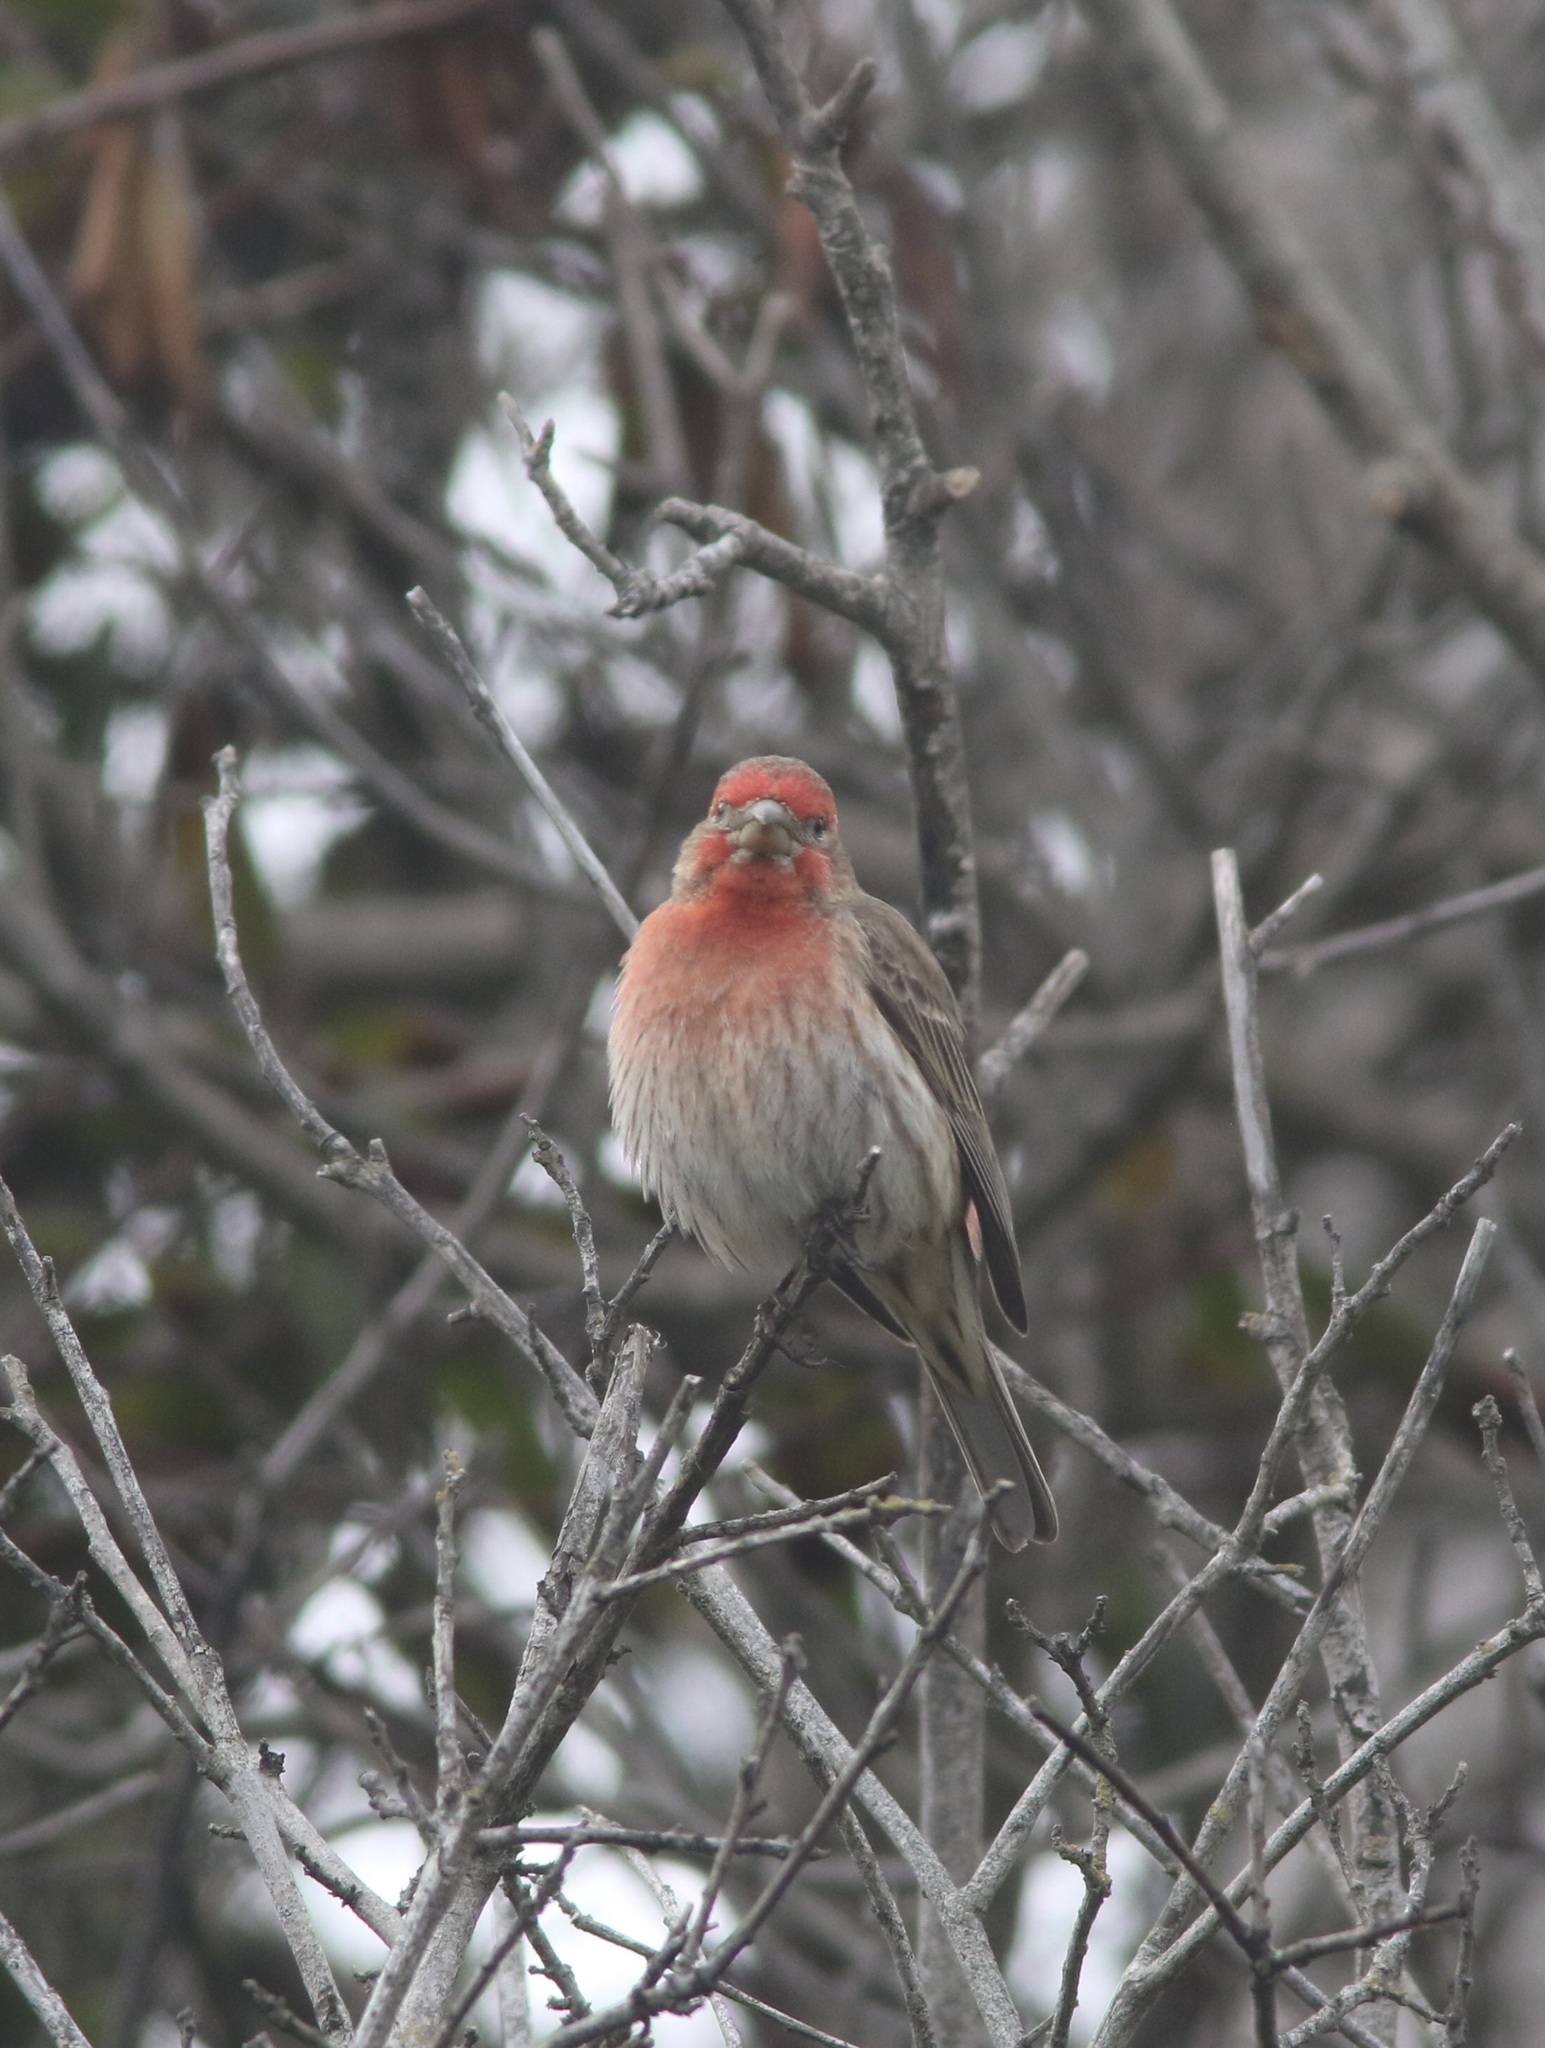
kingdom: Animalia
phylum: Chordata
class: Aves
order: Passeriformes
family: Fringillidae
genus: Haemorhous
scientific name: Haemorhous mexicanus
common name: House finch
